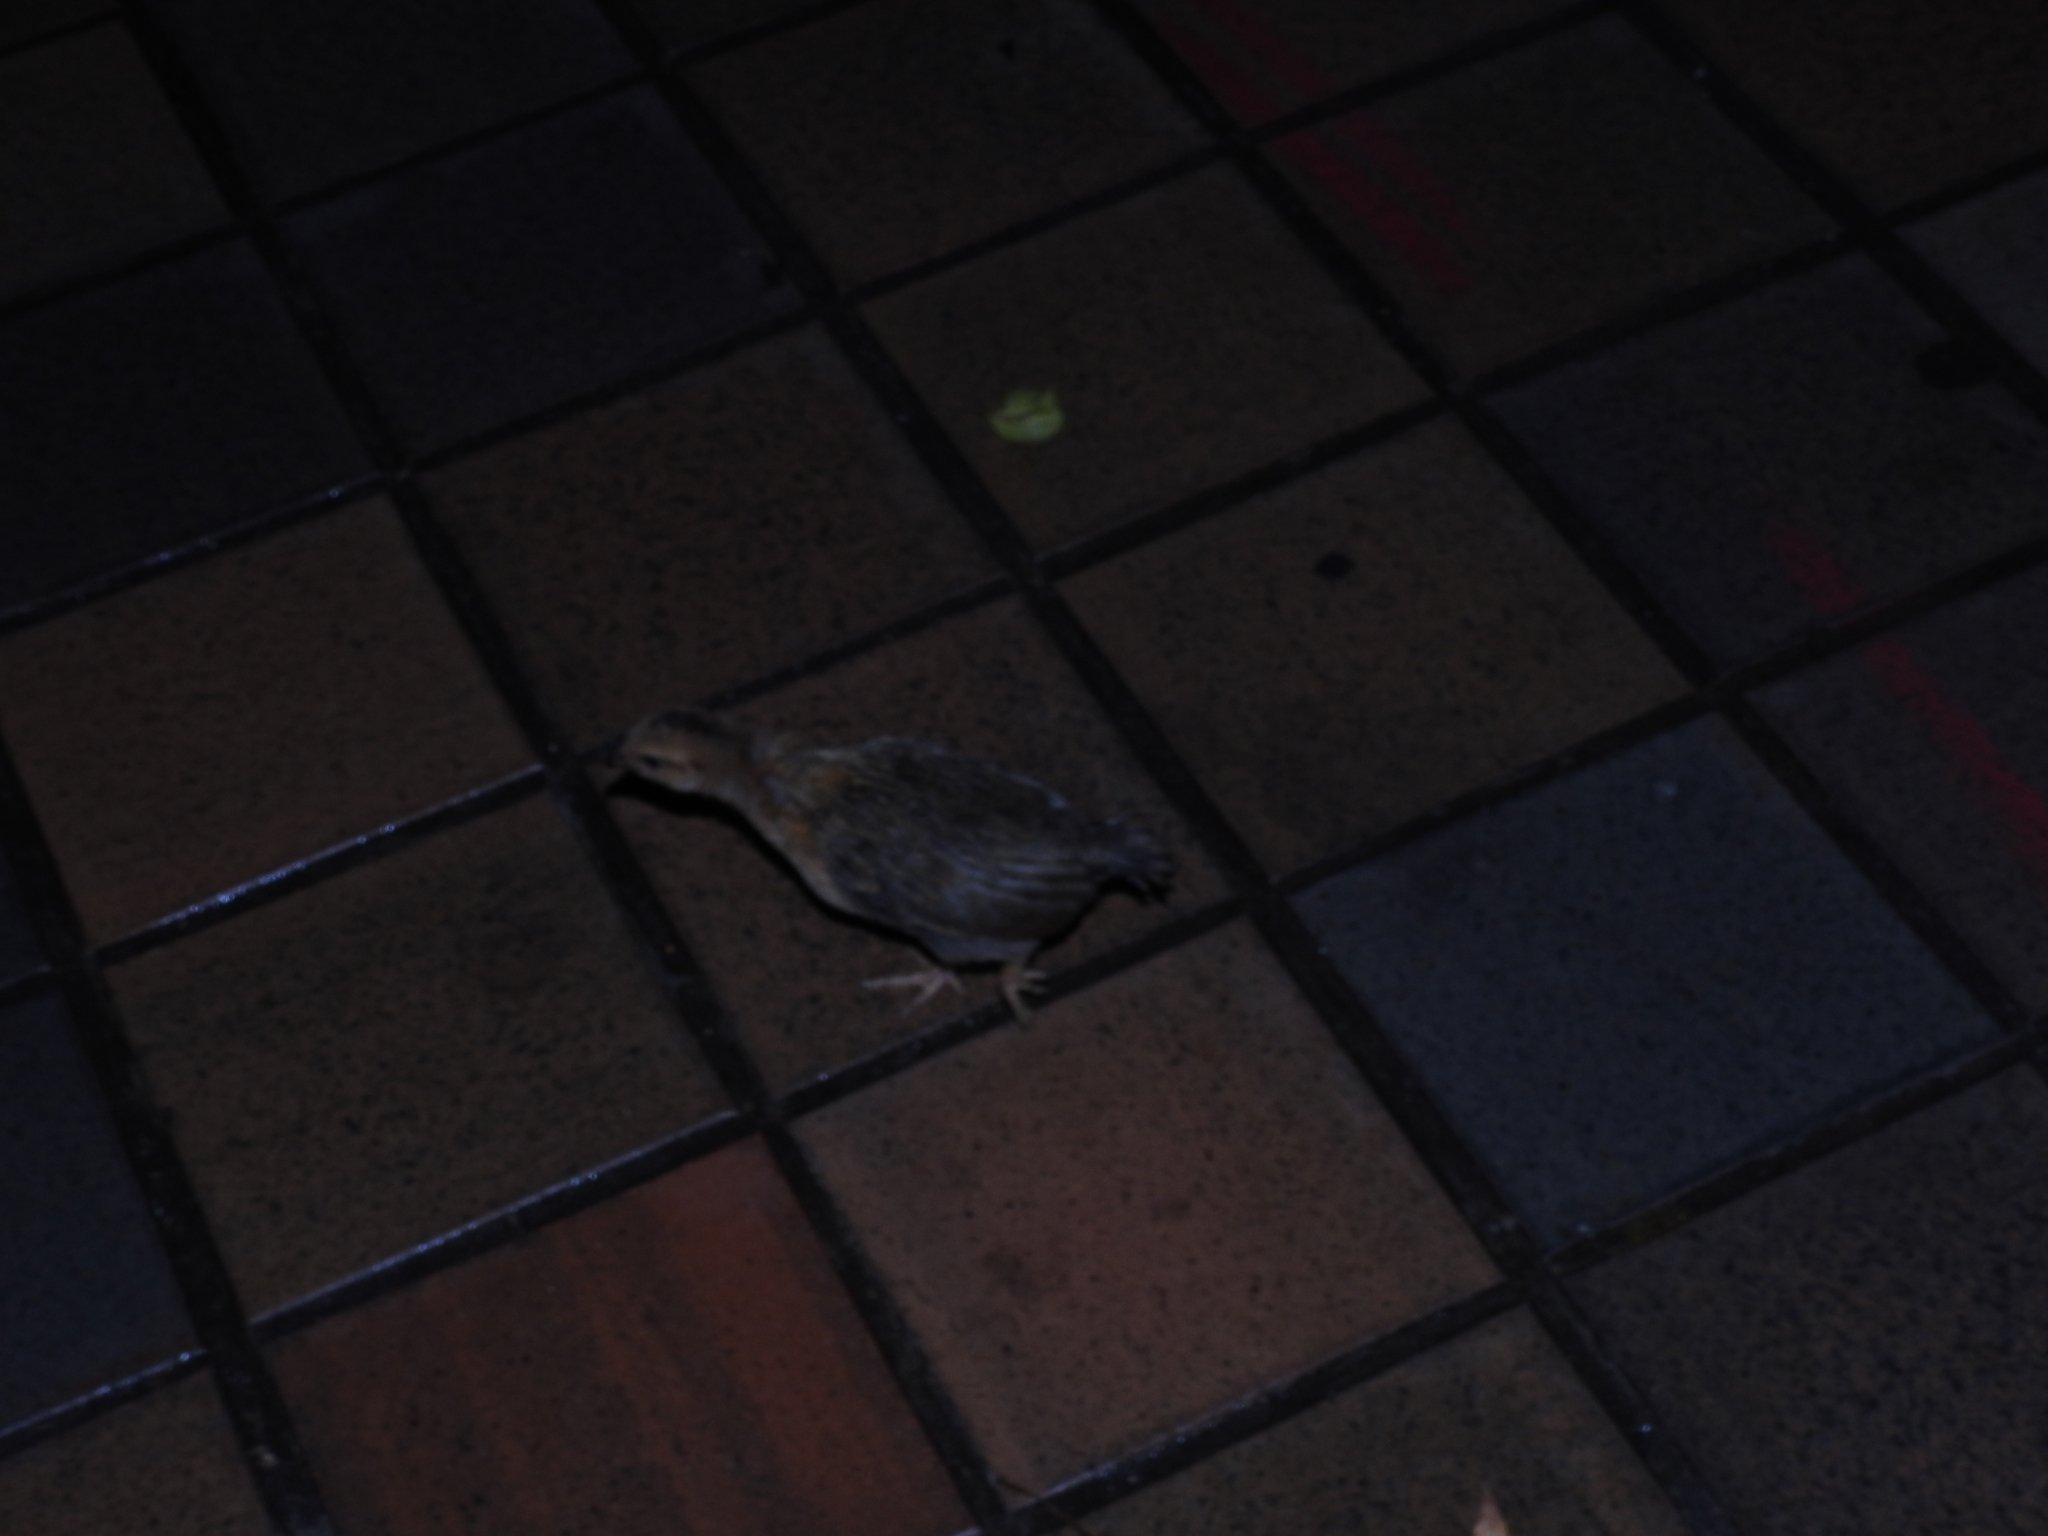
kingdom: Animalia
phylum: Chordata
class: Aves
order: Galliformes
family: Phasianidae
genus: Gallus
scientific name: Gallus gallus
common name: Red junglefowl
